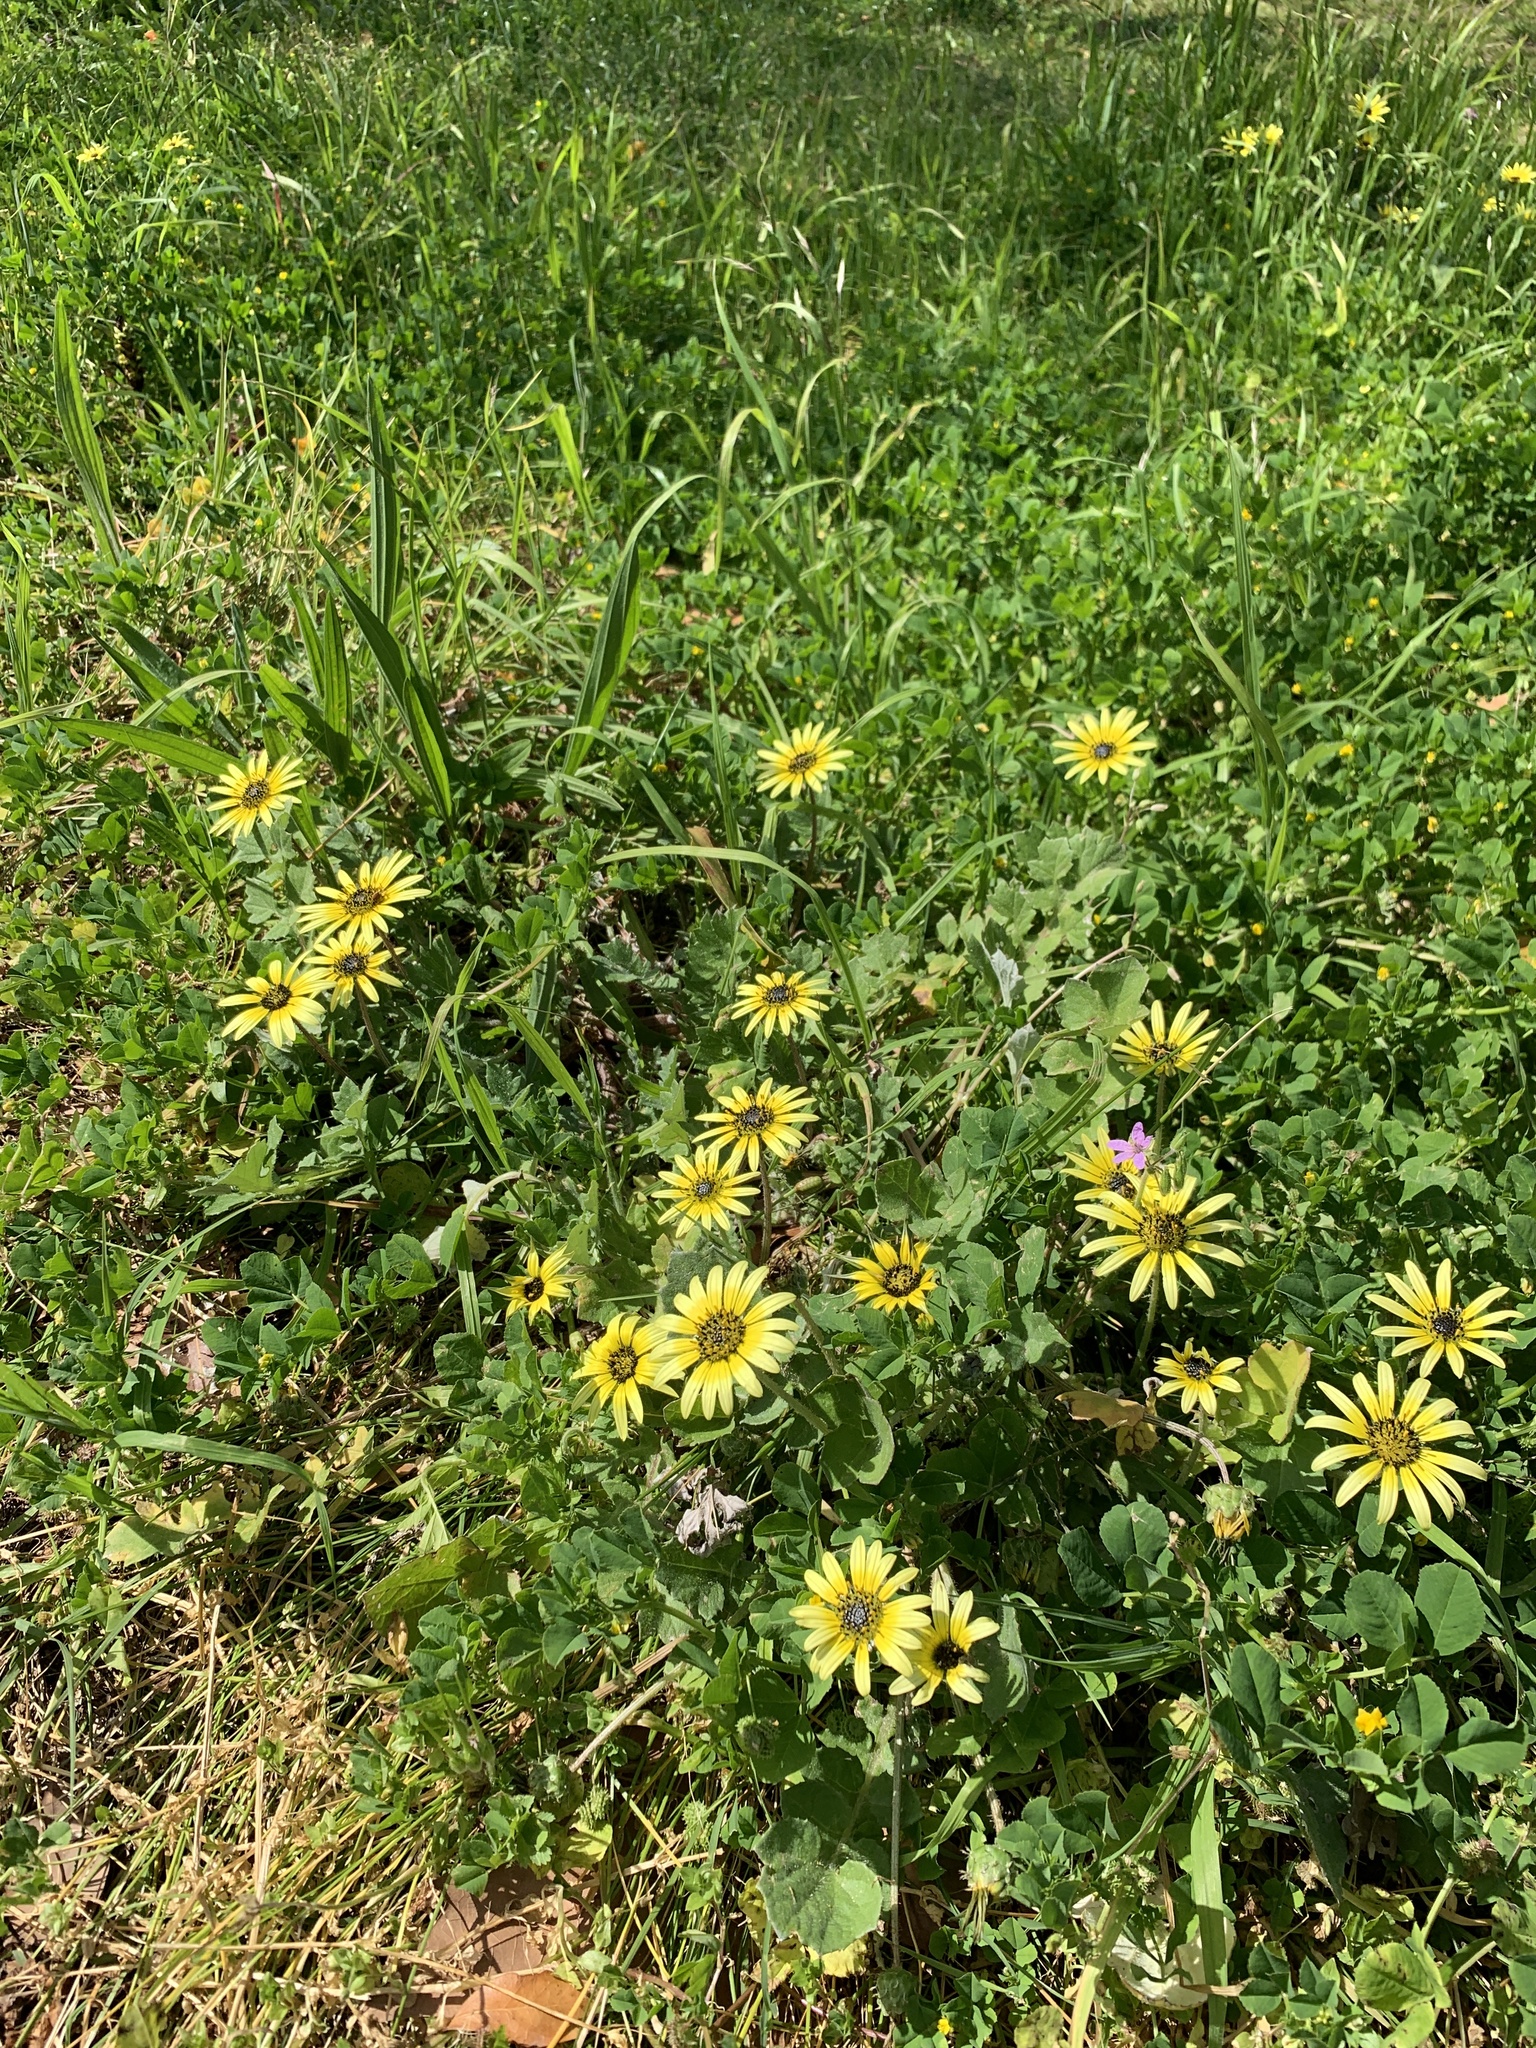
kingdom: Plantae
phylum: Tracheophyta
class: Magnoliopsida
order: Asterales
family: Asteraceae
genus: Arctotheca
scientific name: Arctotheca calendula
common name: Capeweed
